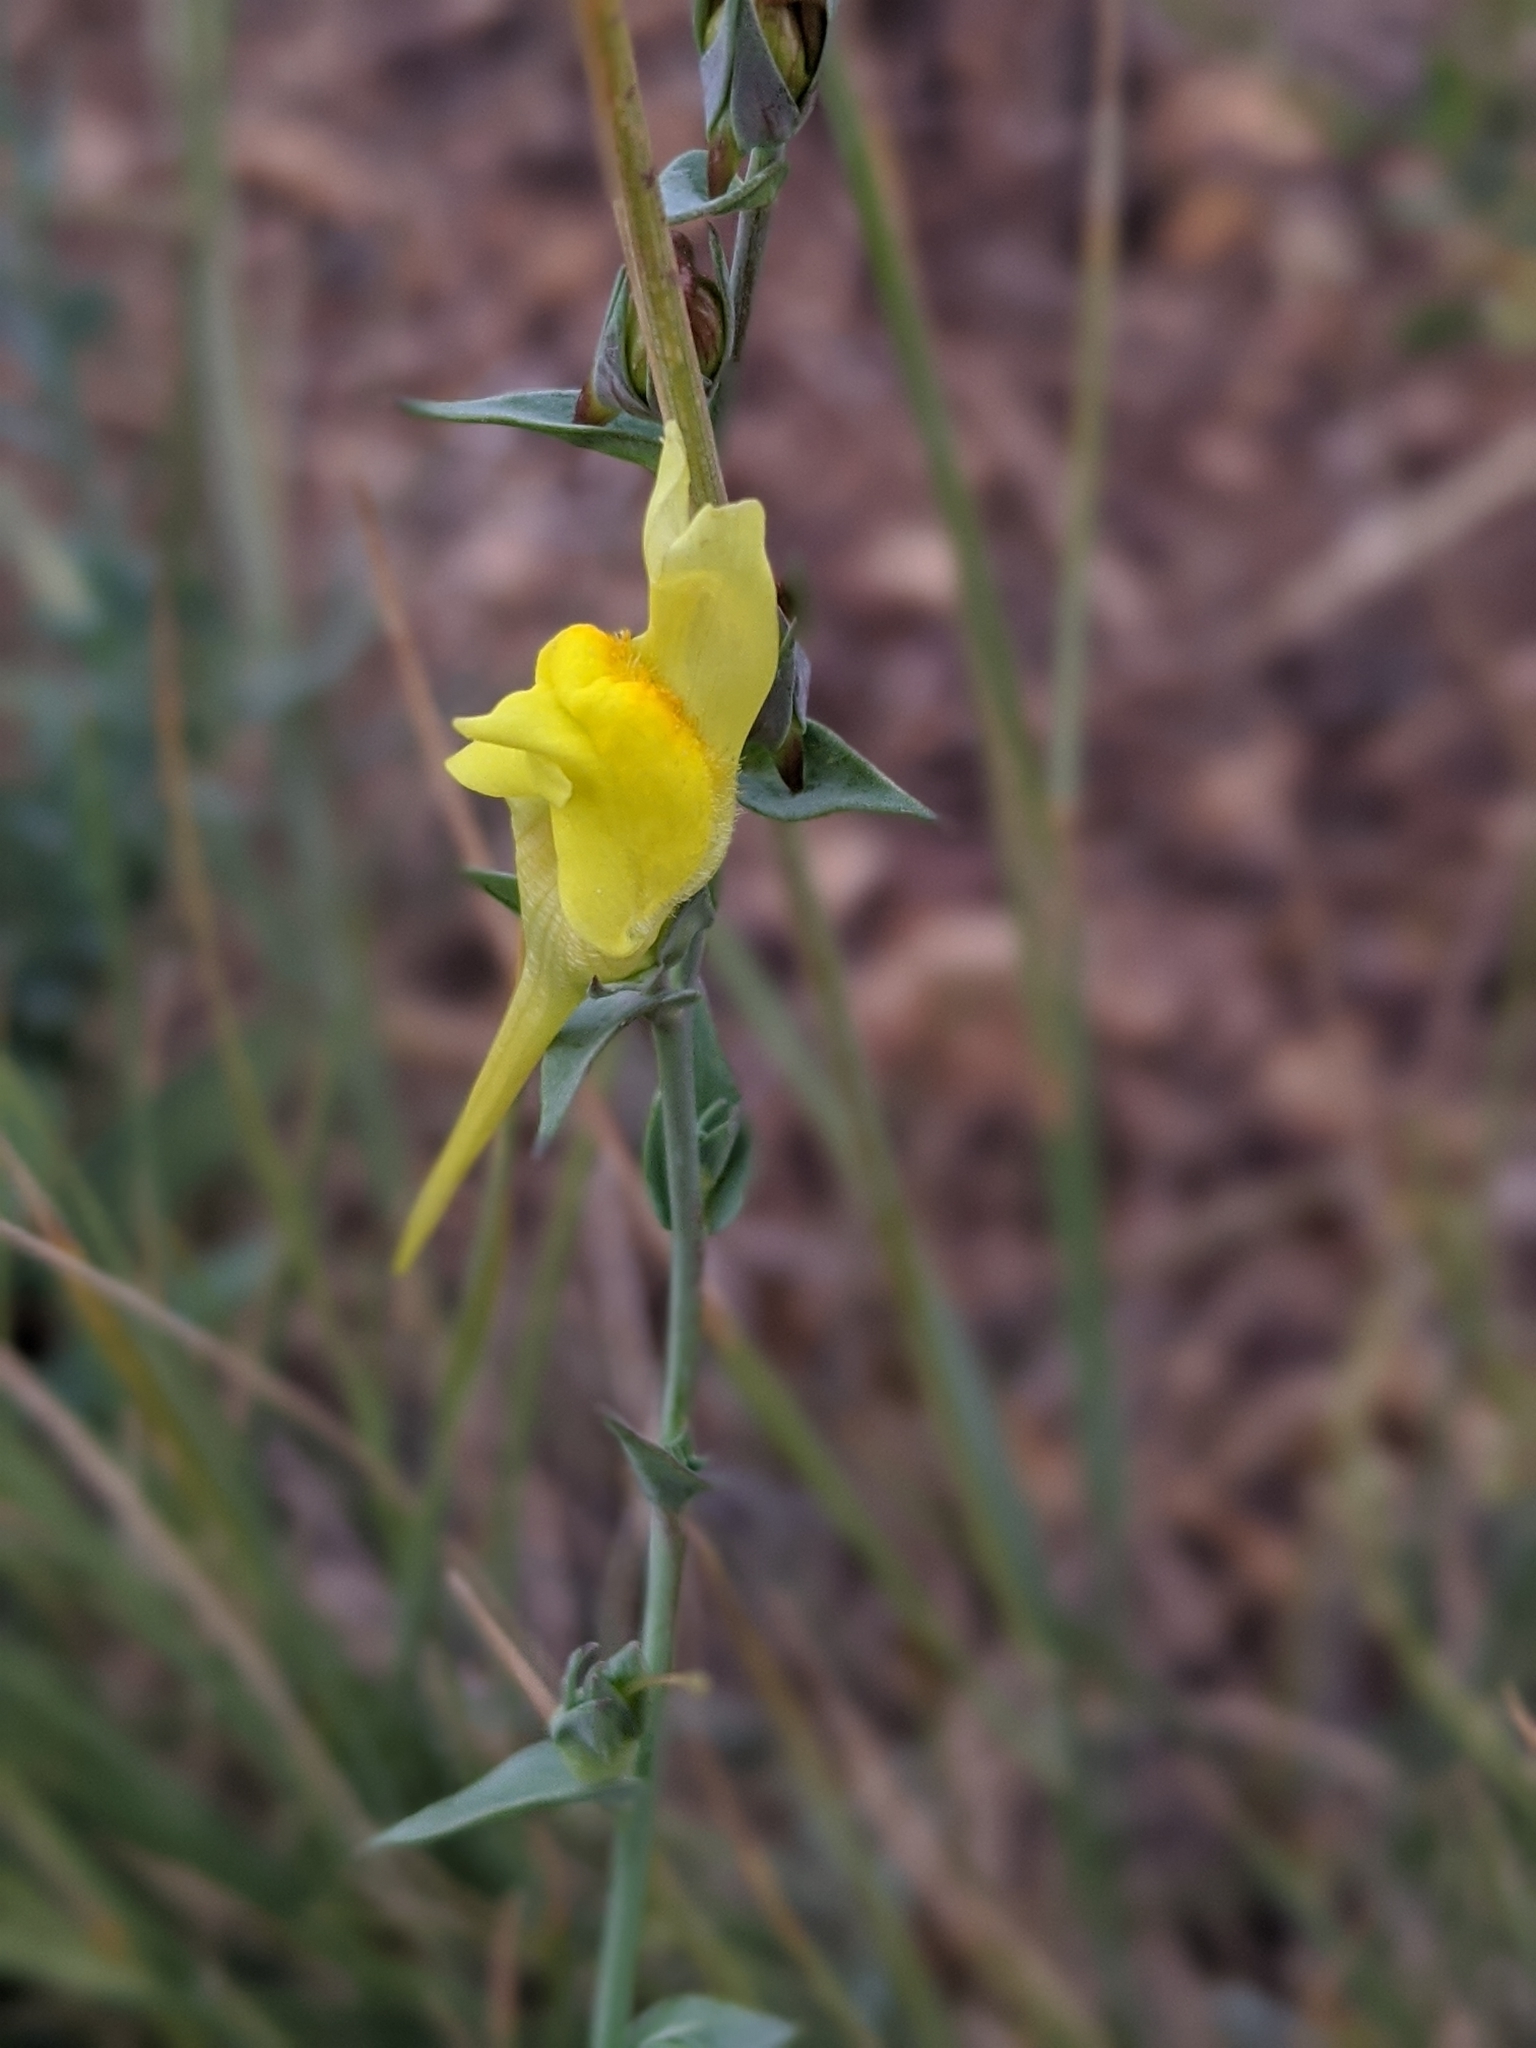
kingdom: Plantae
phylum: Tracheophyta
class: Magnoliopsida
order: Lamiales
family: Plantaginaceae
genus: Linaria
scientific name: Linaria dalmatica
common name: Dalmatian toadflax
